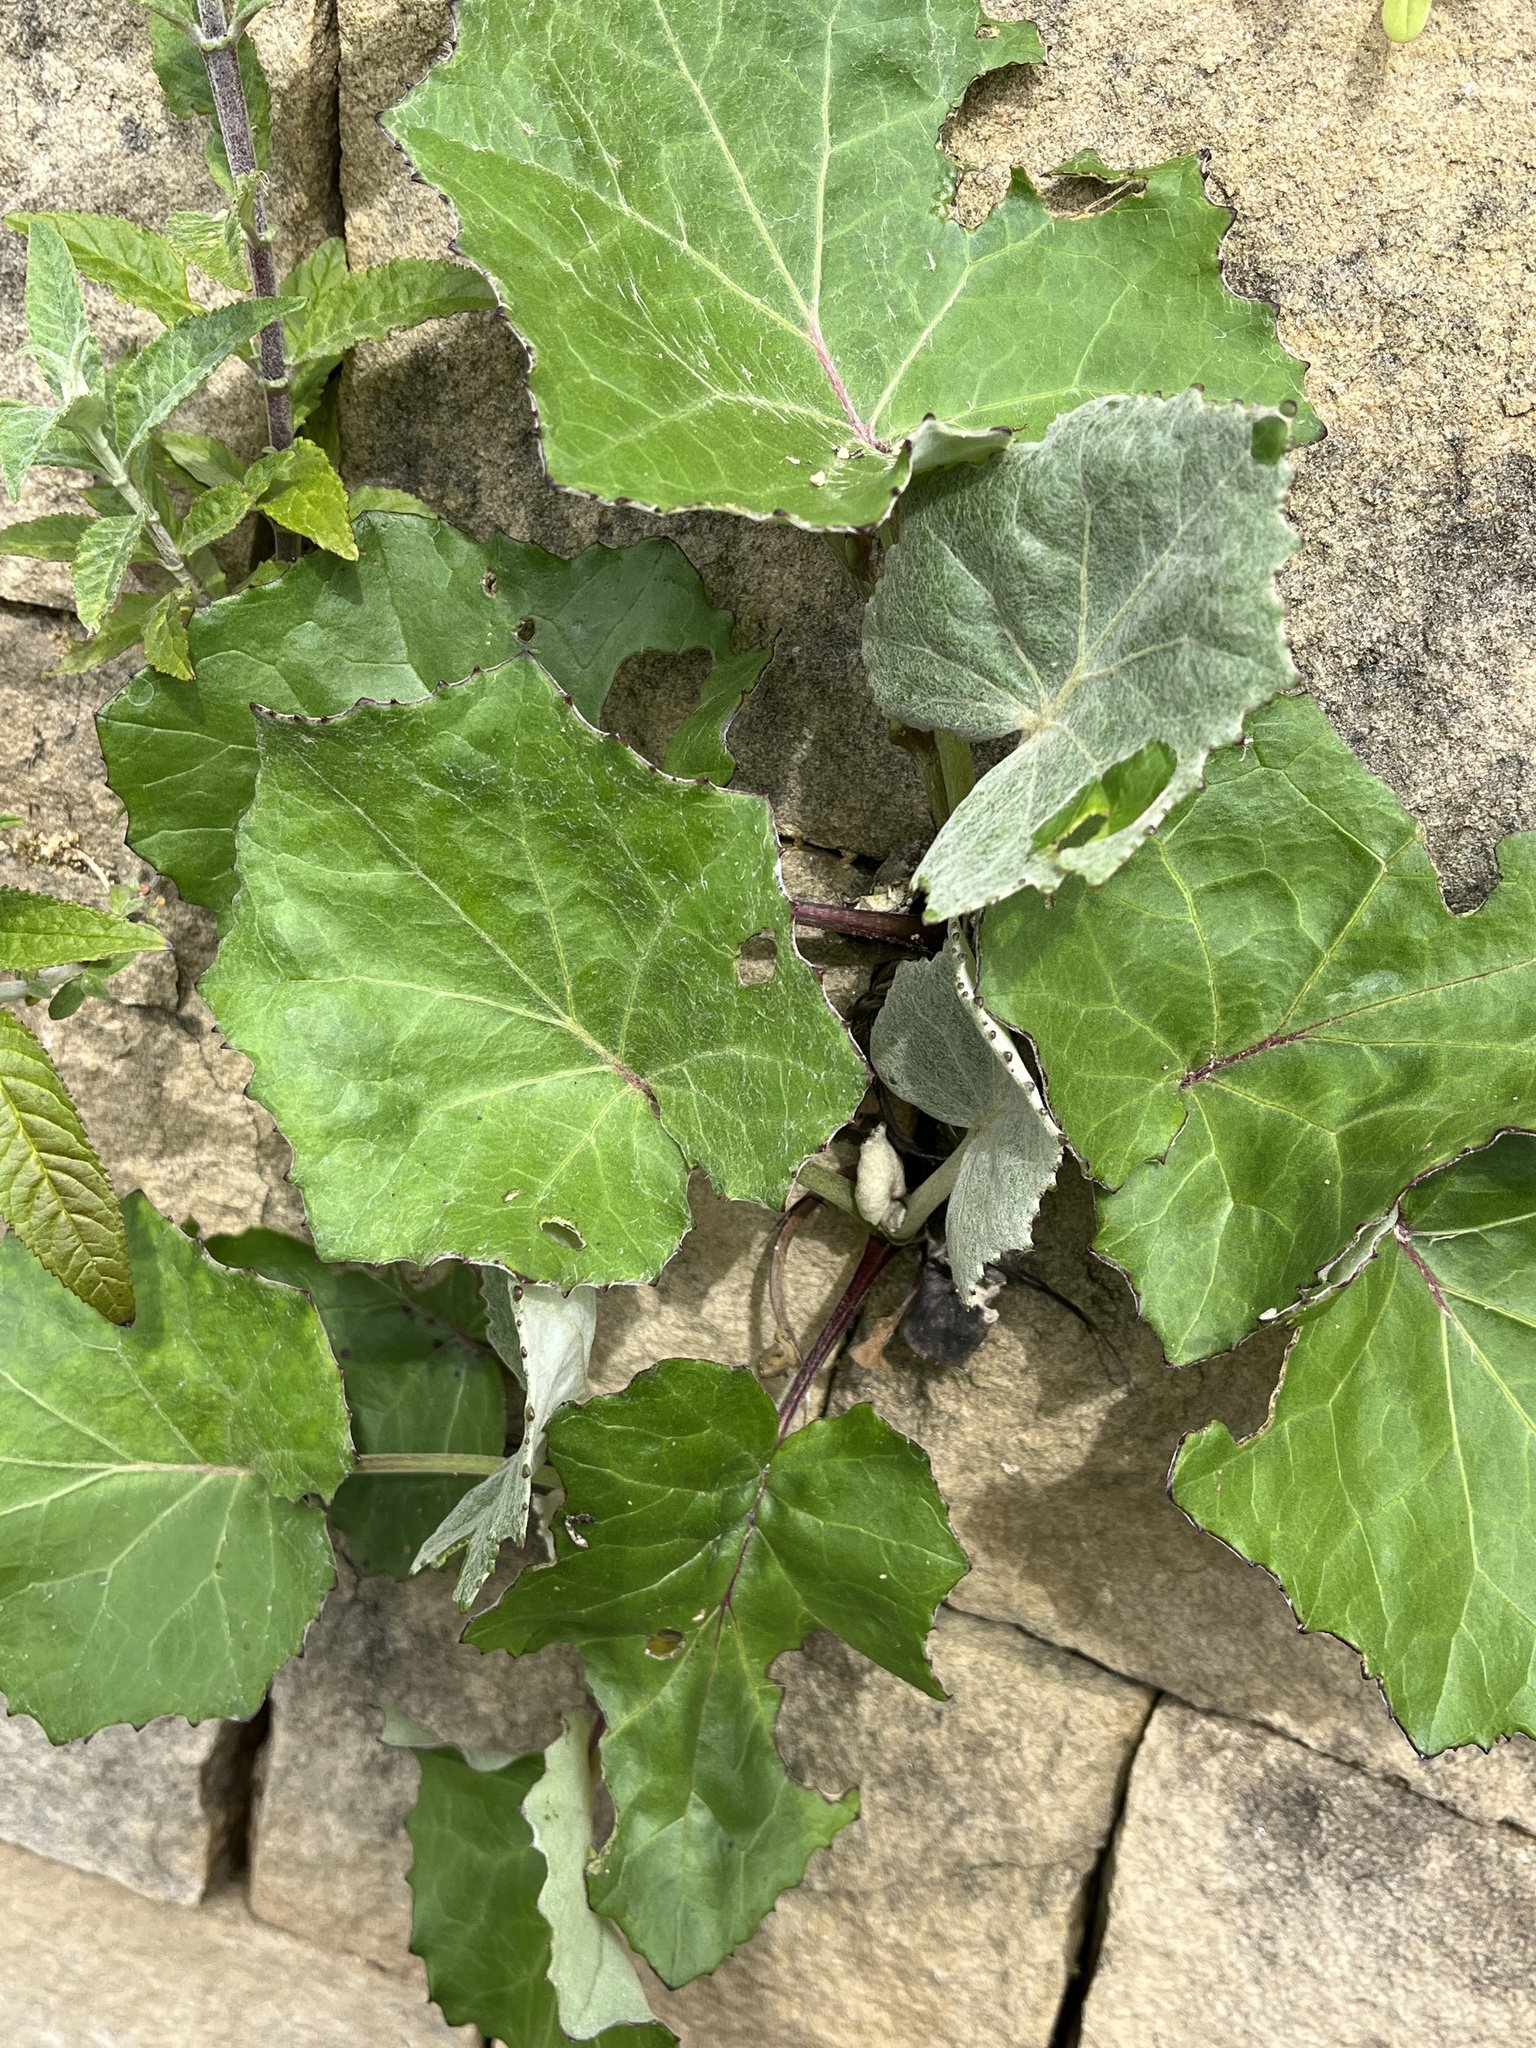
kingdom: Plantae
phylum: Tracheophyta
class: Magnoliopsida
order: Asterales
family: Asteraceae
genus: Tussilago
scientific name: Tussilago farfara
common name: Coltsfoot
